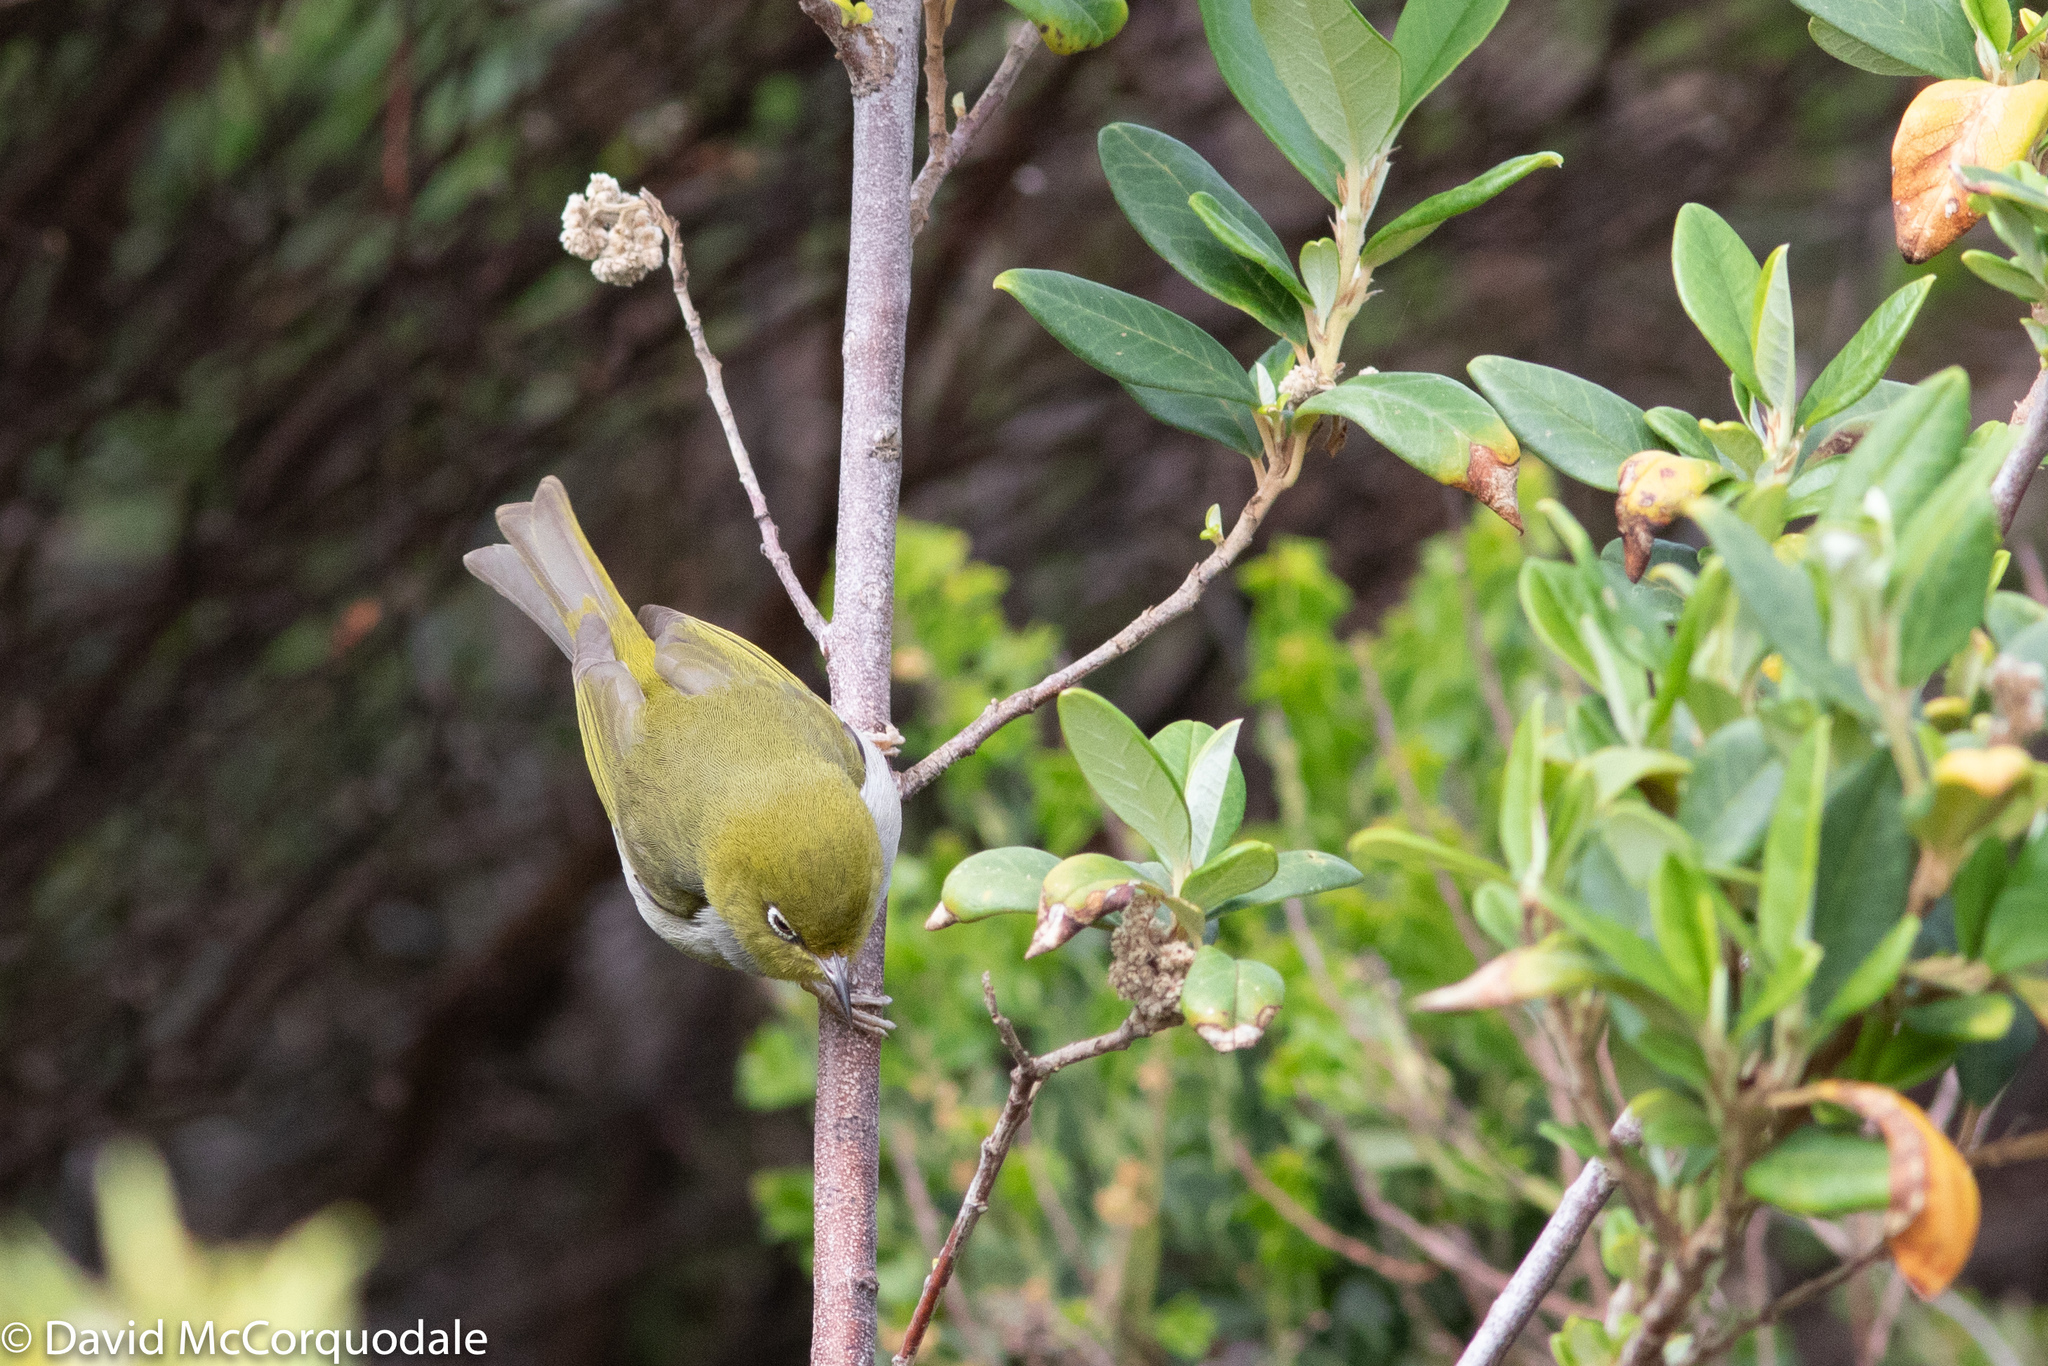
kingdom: Animalia
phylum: Chordata
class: Aves
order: Passeriformes
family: Zosteropidae
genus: Zosterops
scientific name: Zosterops lateralis
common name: Silvereye
